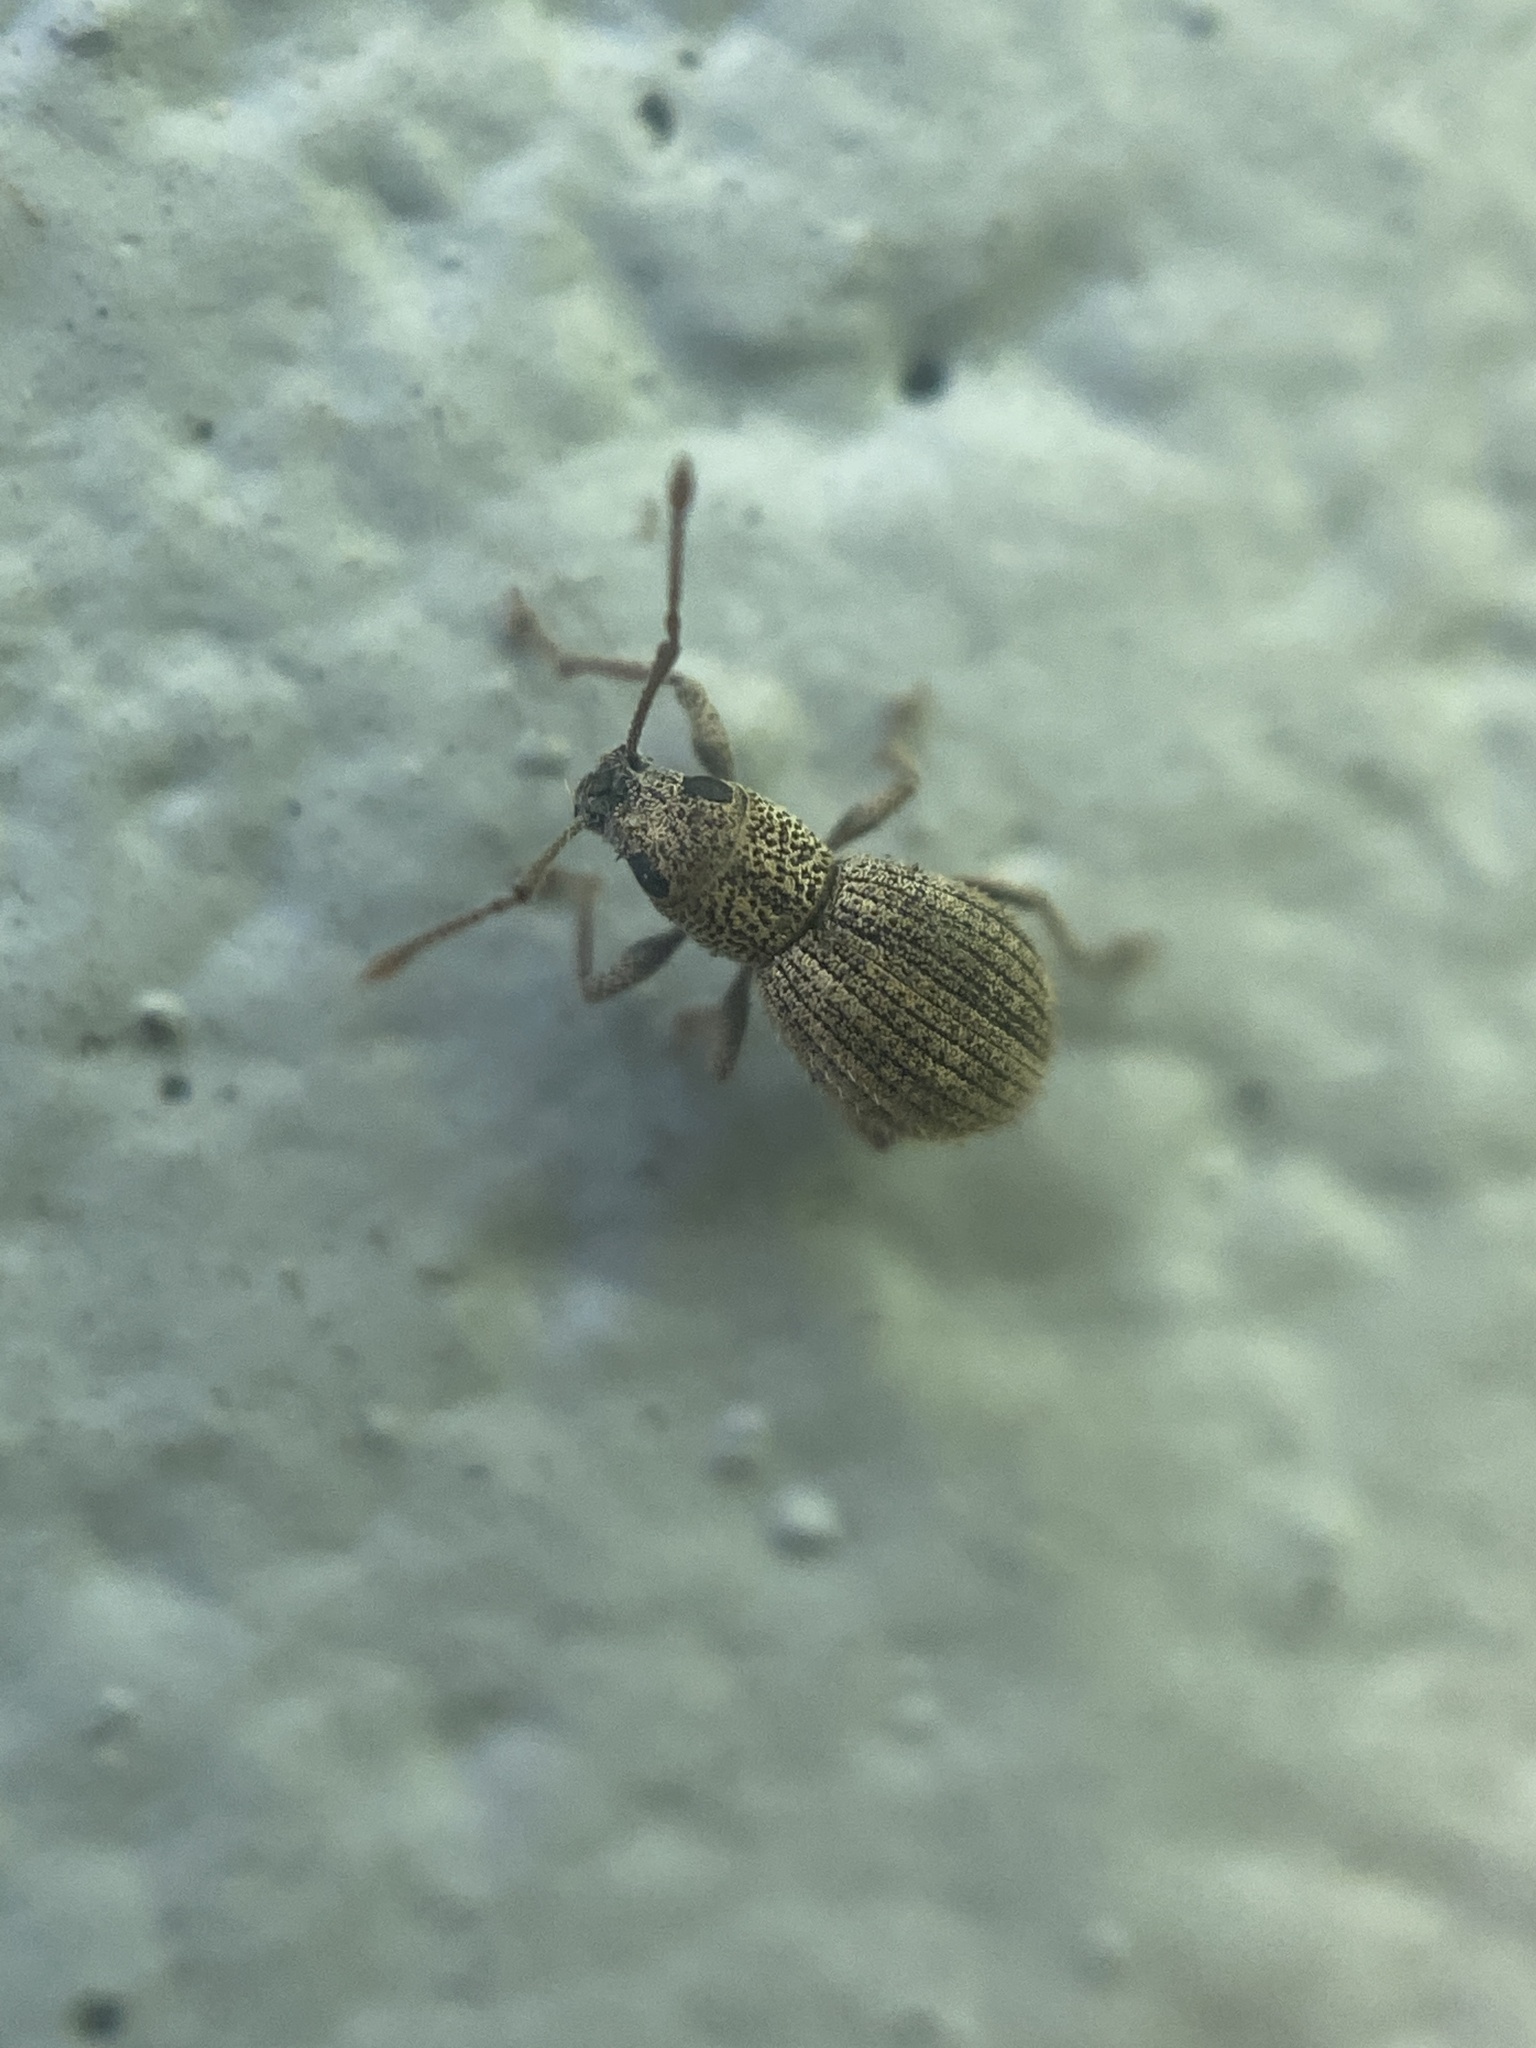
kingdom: Animalia
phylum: Arthropoda
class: Insecta
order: Coleoptera
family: Curculionidae
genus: Calomycterus
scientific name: Calomycterus setarius
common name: Weevil
